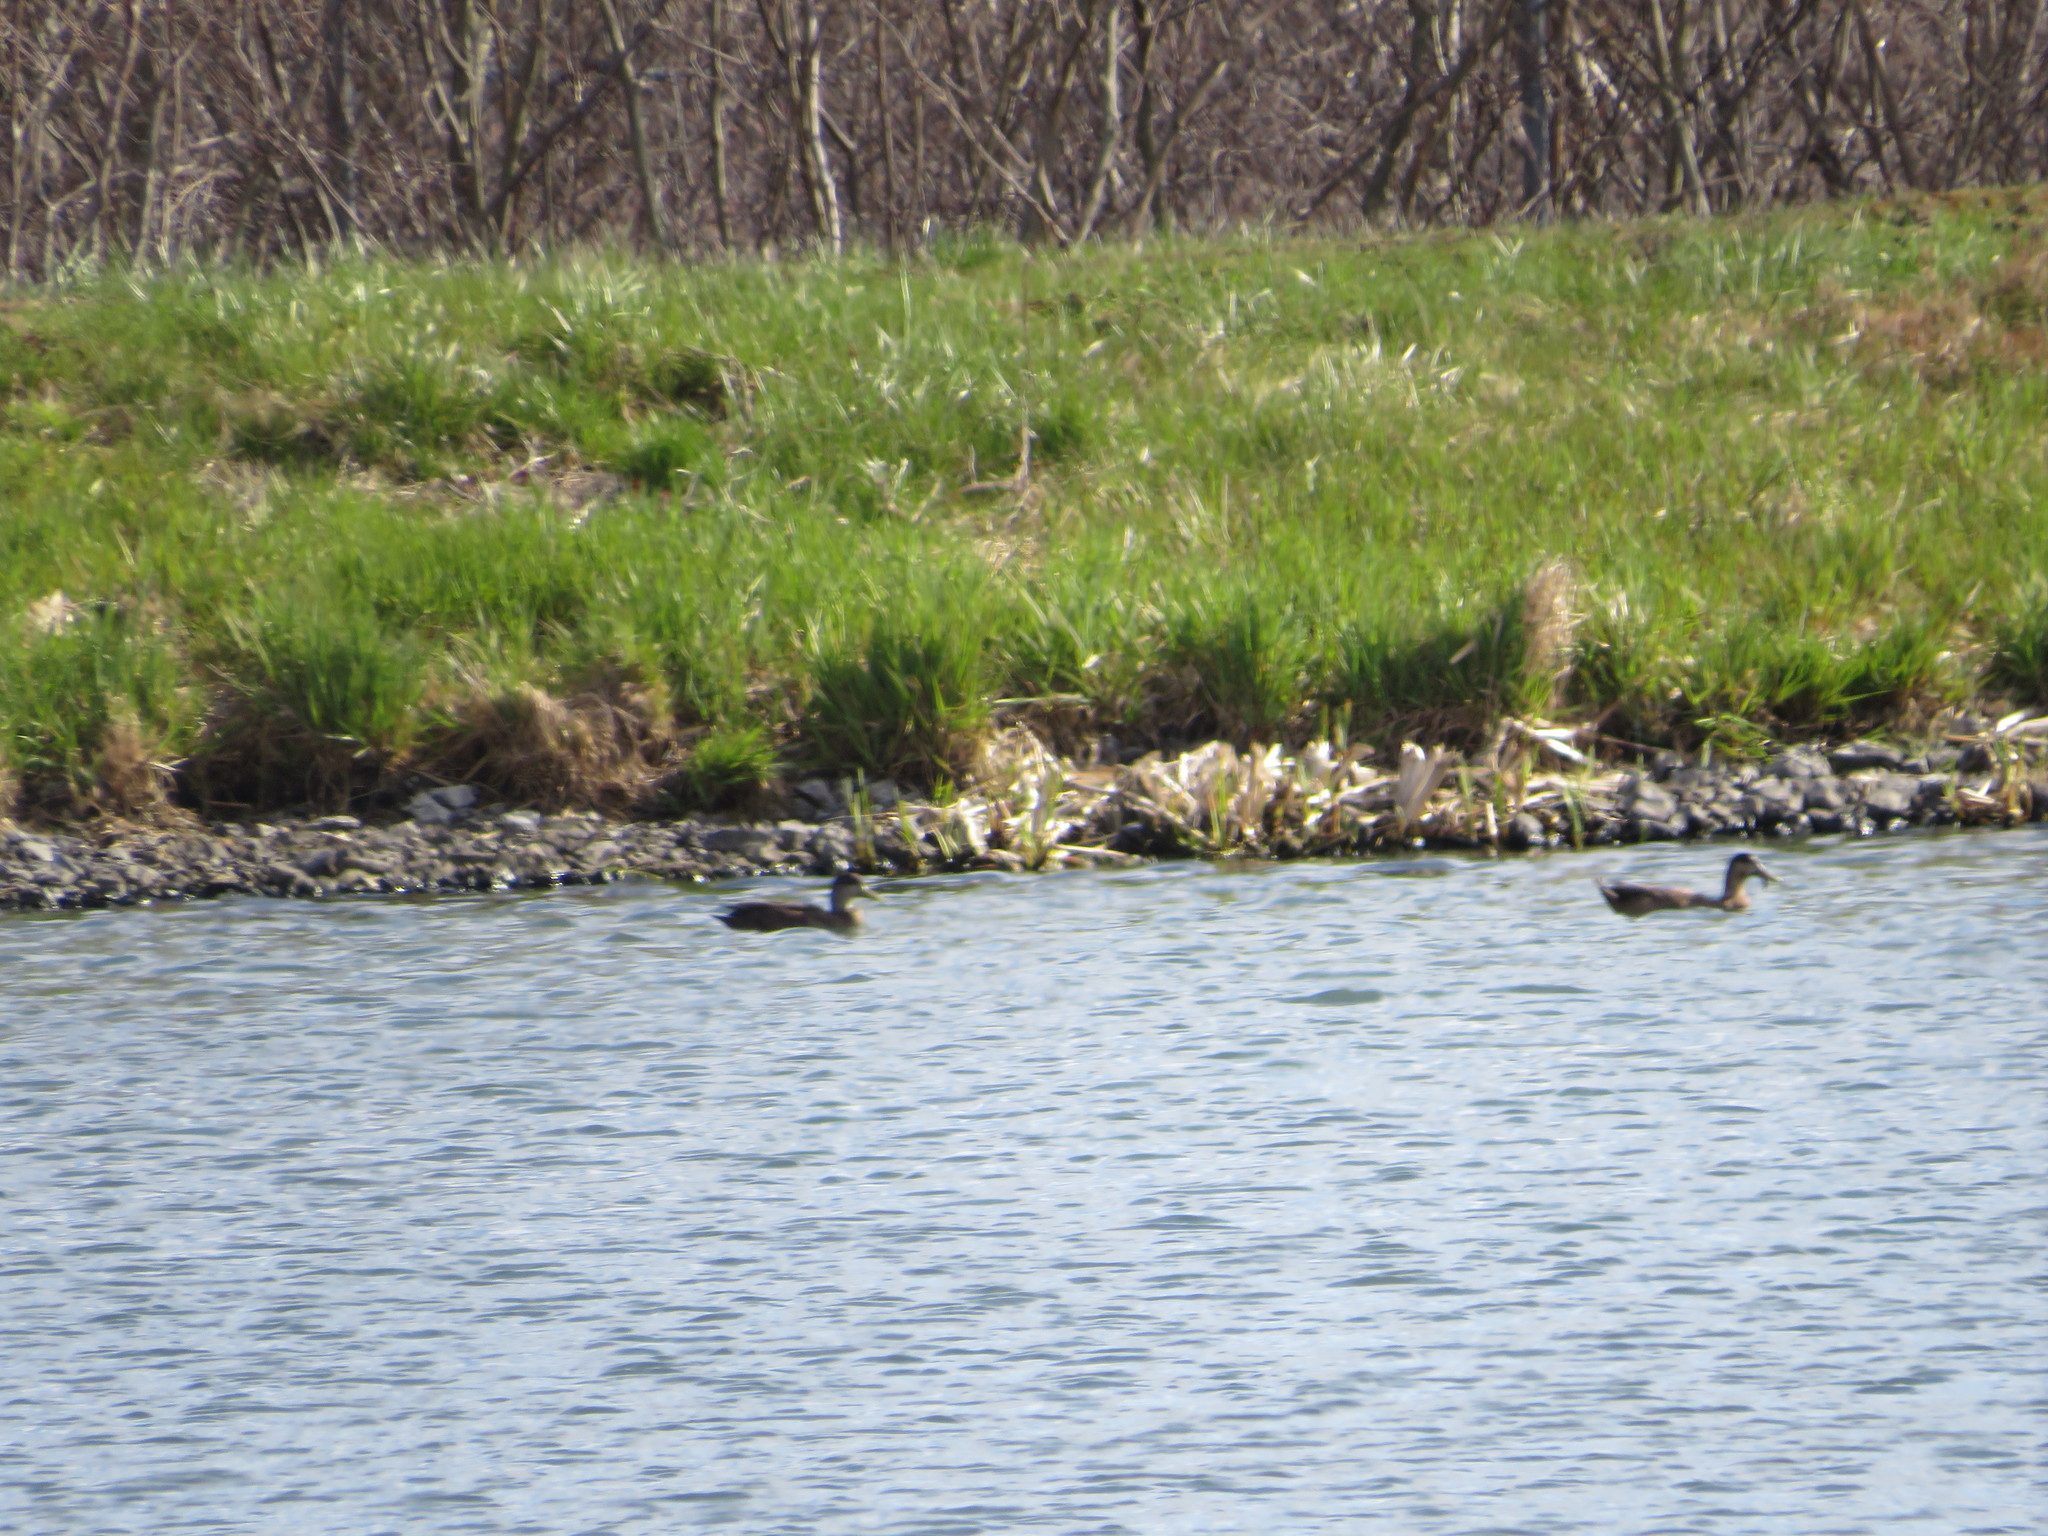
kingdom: Animalia
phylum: Chordata
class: Aves
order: Anseriformes
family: Anatidae
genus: Anas
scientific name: Anas rubripes
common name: American black duck
